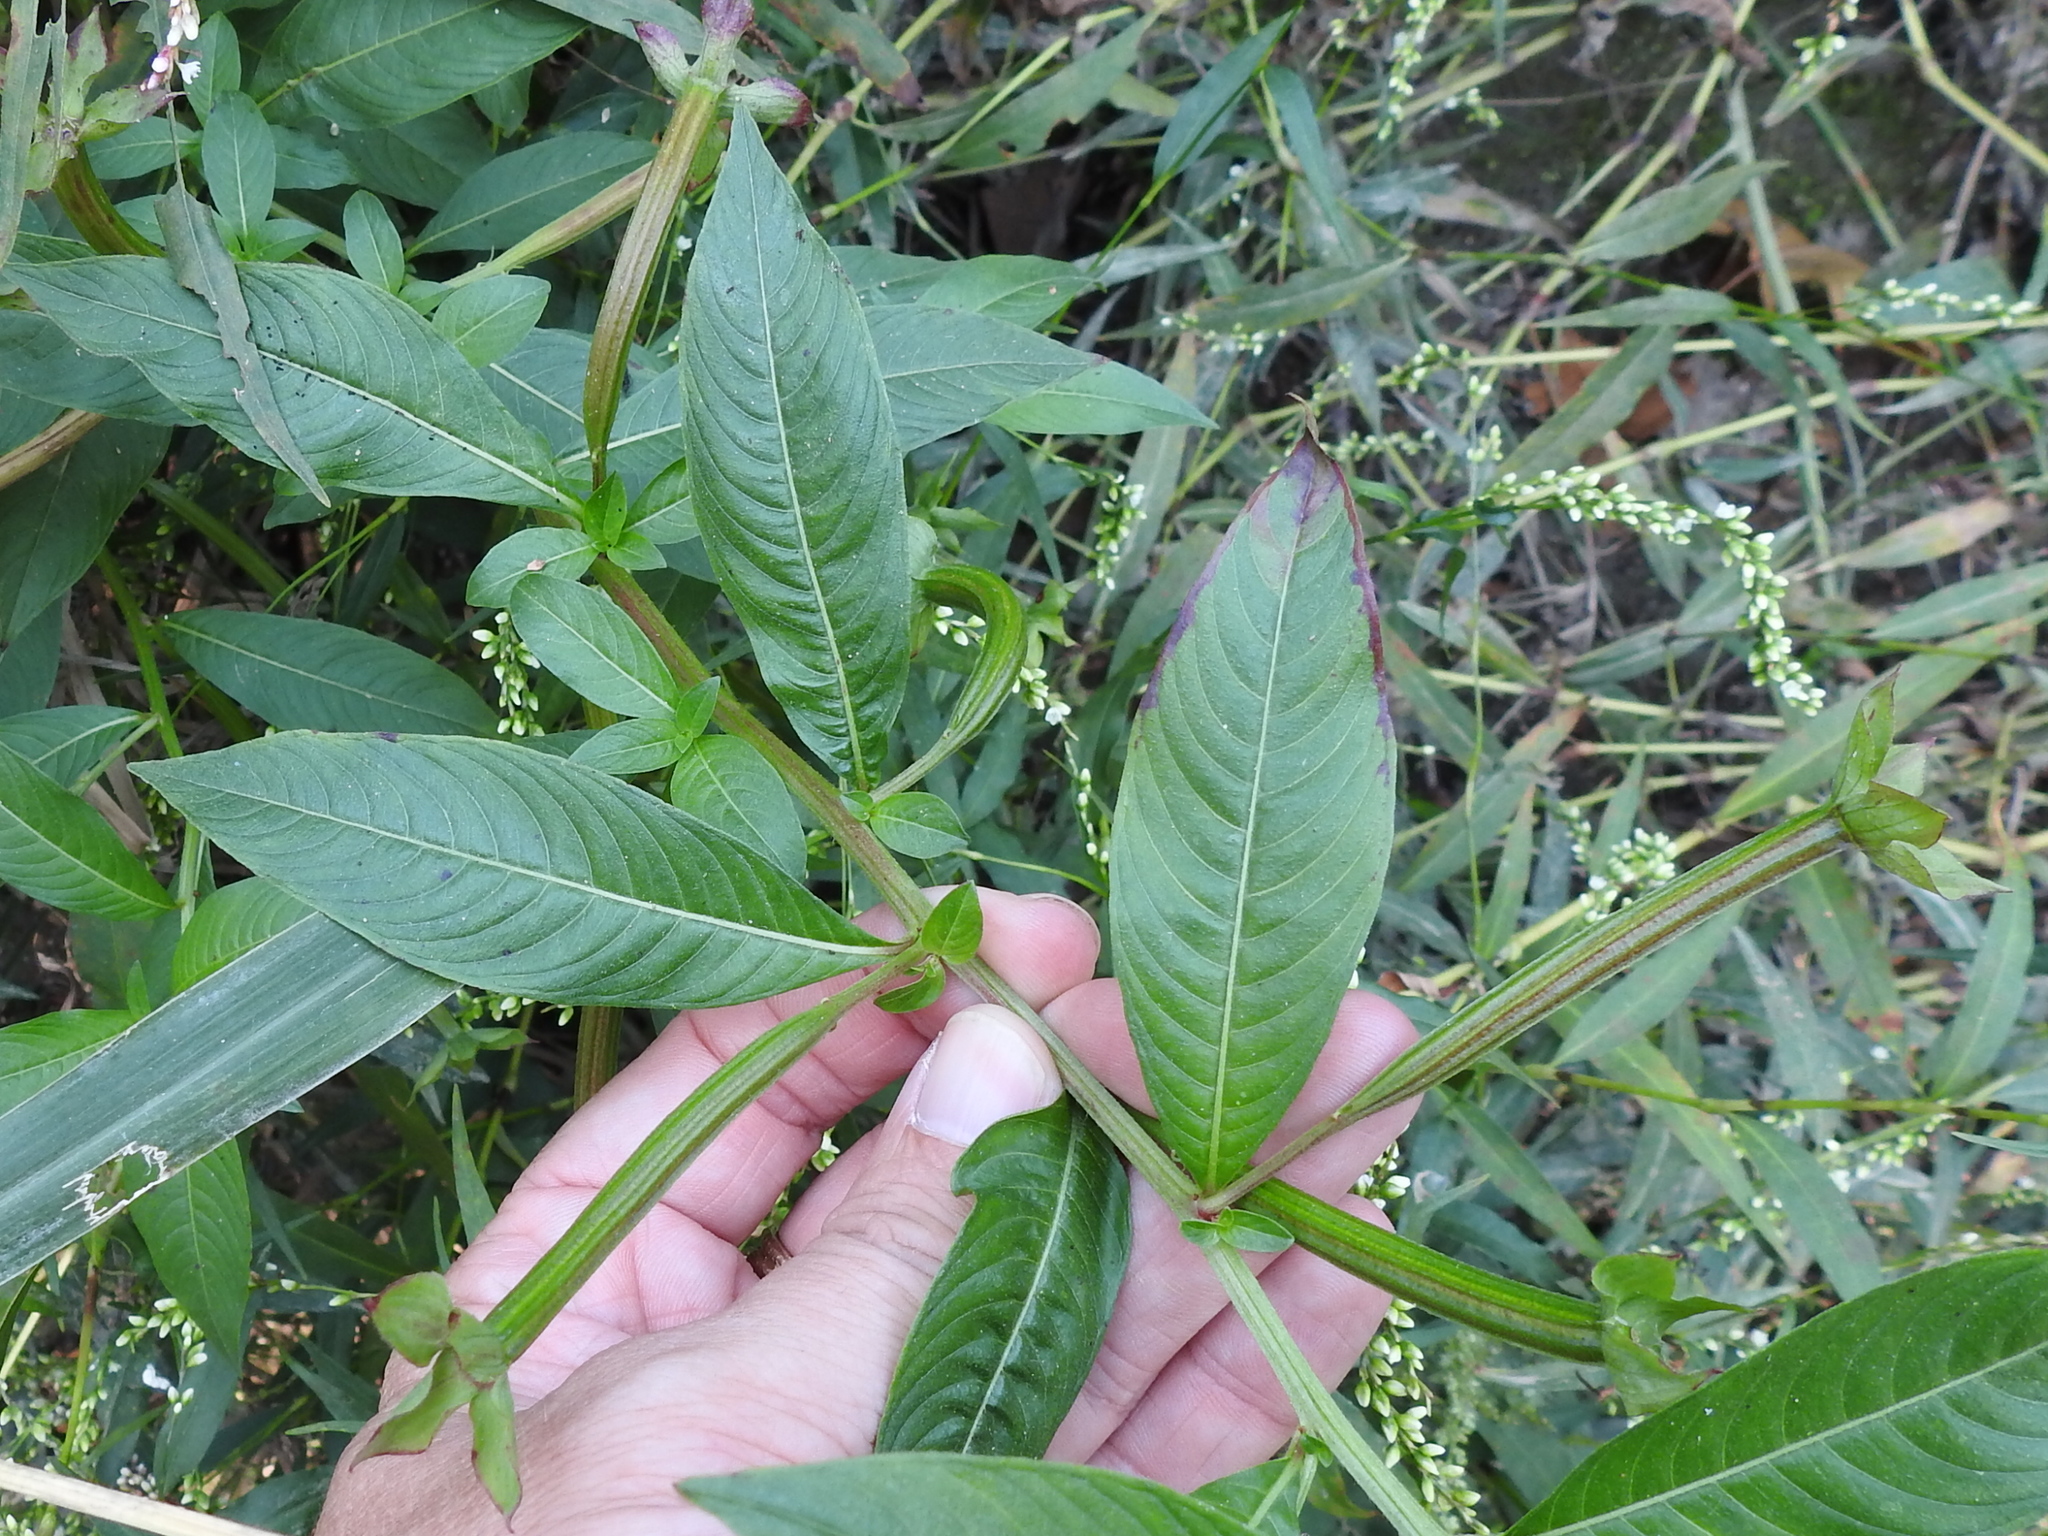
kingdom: Plantae
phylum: Tracheophyta
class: Magnoliopsida
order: Myrtales
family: Onagraceae
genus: Ludwigia
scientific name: Ludwigia octovalvis
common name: Water-primrose
